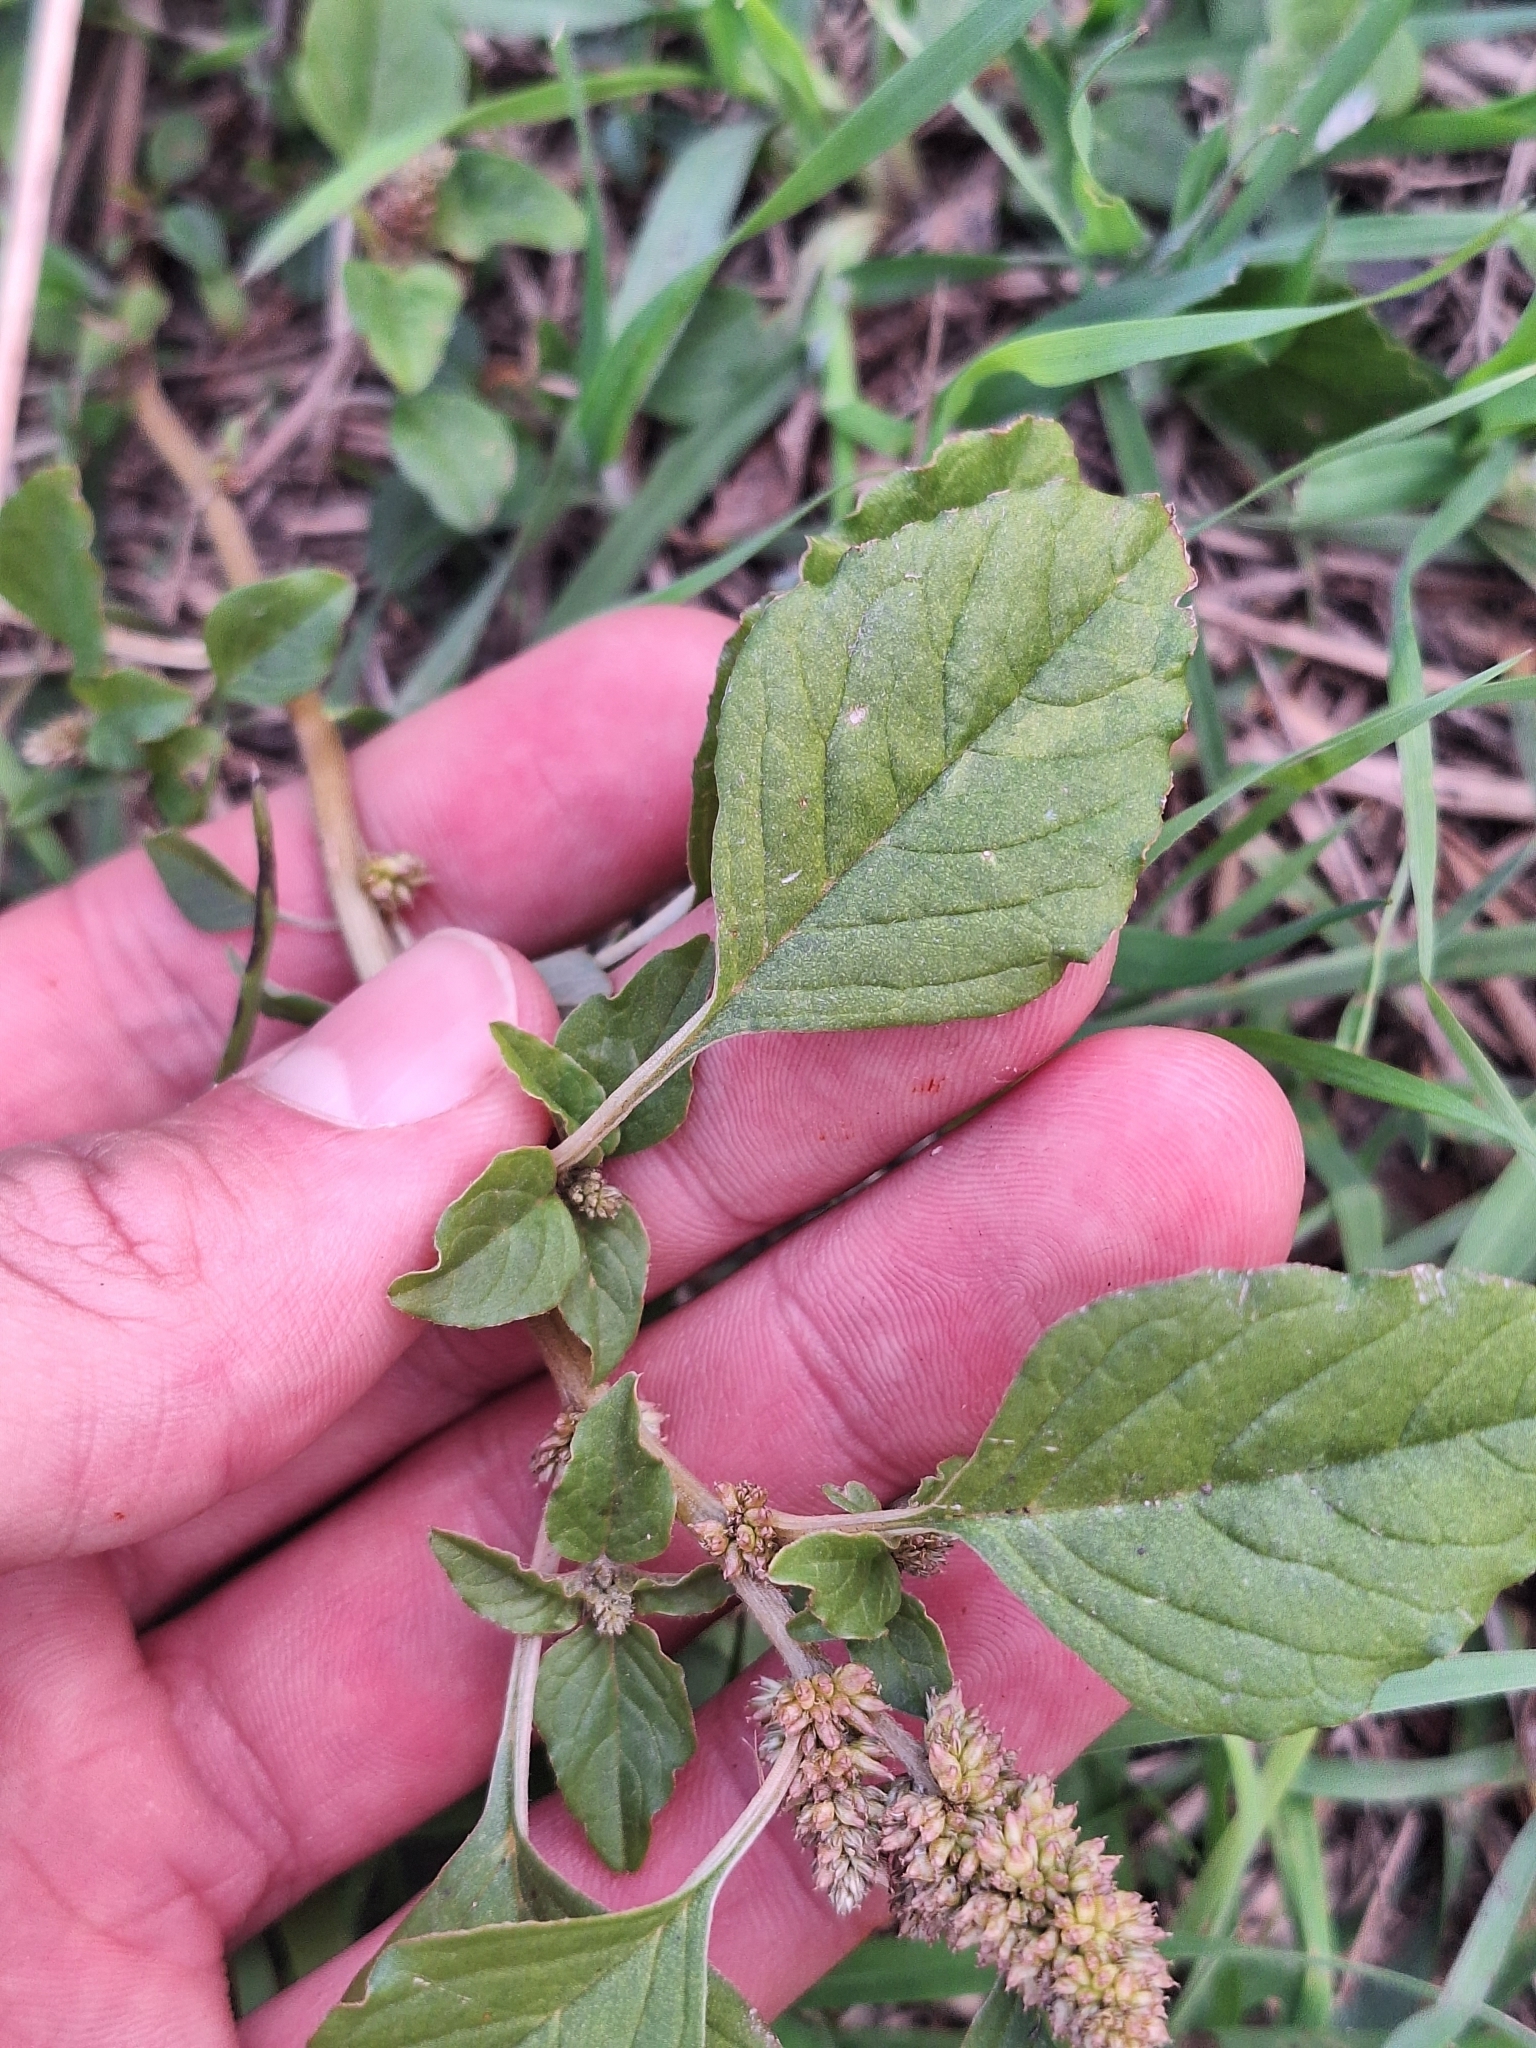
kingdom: Plantae
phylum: Tracheophyta
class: Magnoliopsida
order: Caryophyllales
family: Amaranthaceae
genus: Amaranthus
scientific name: Amaranthus deflexus
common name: Perennial pigweed
